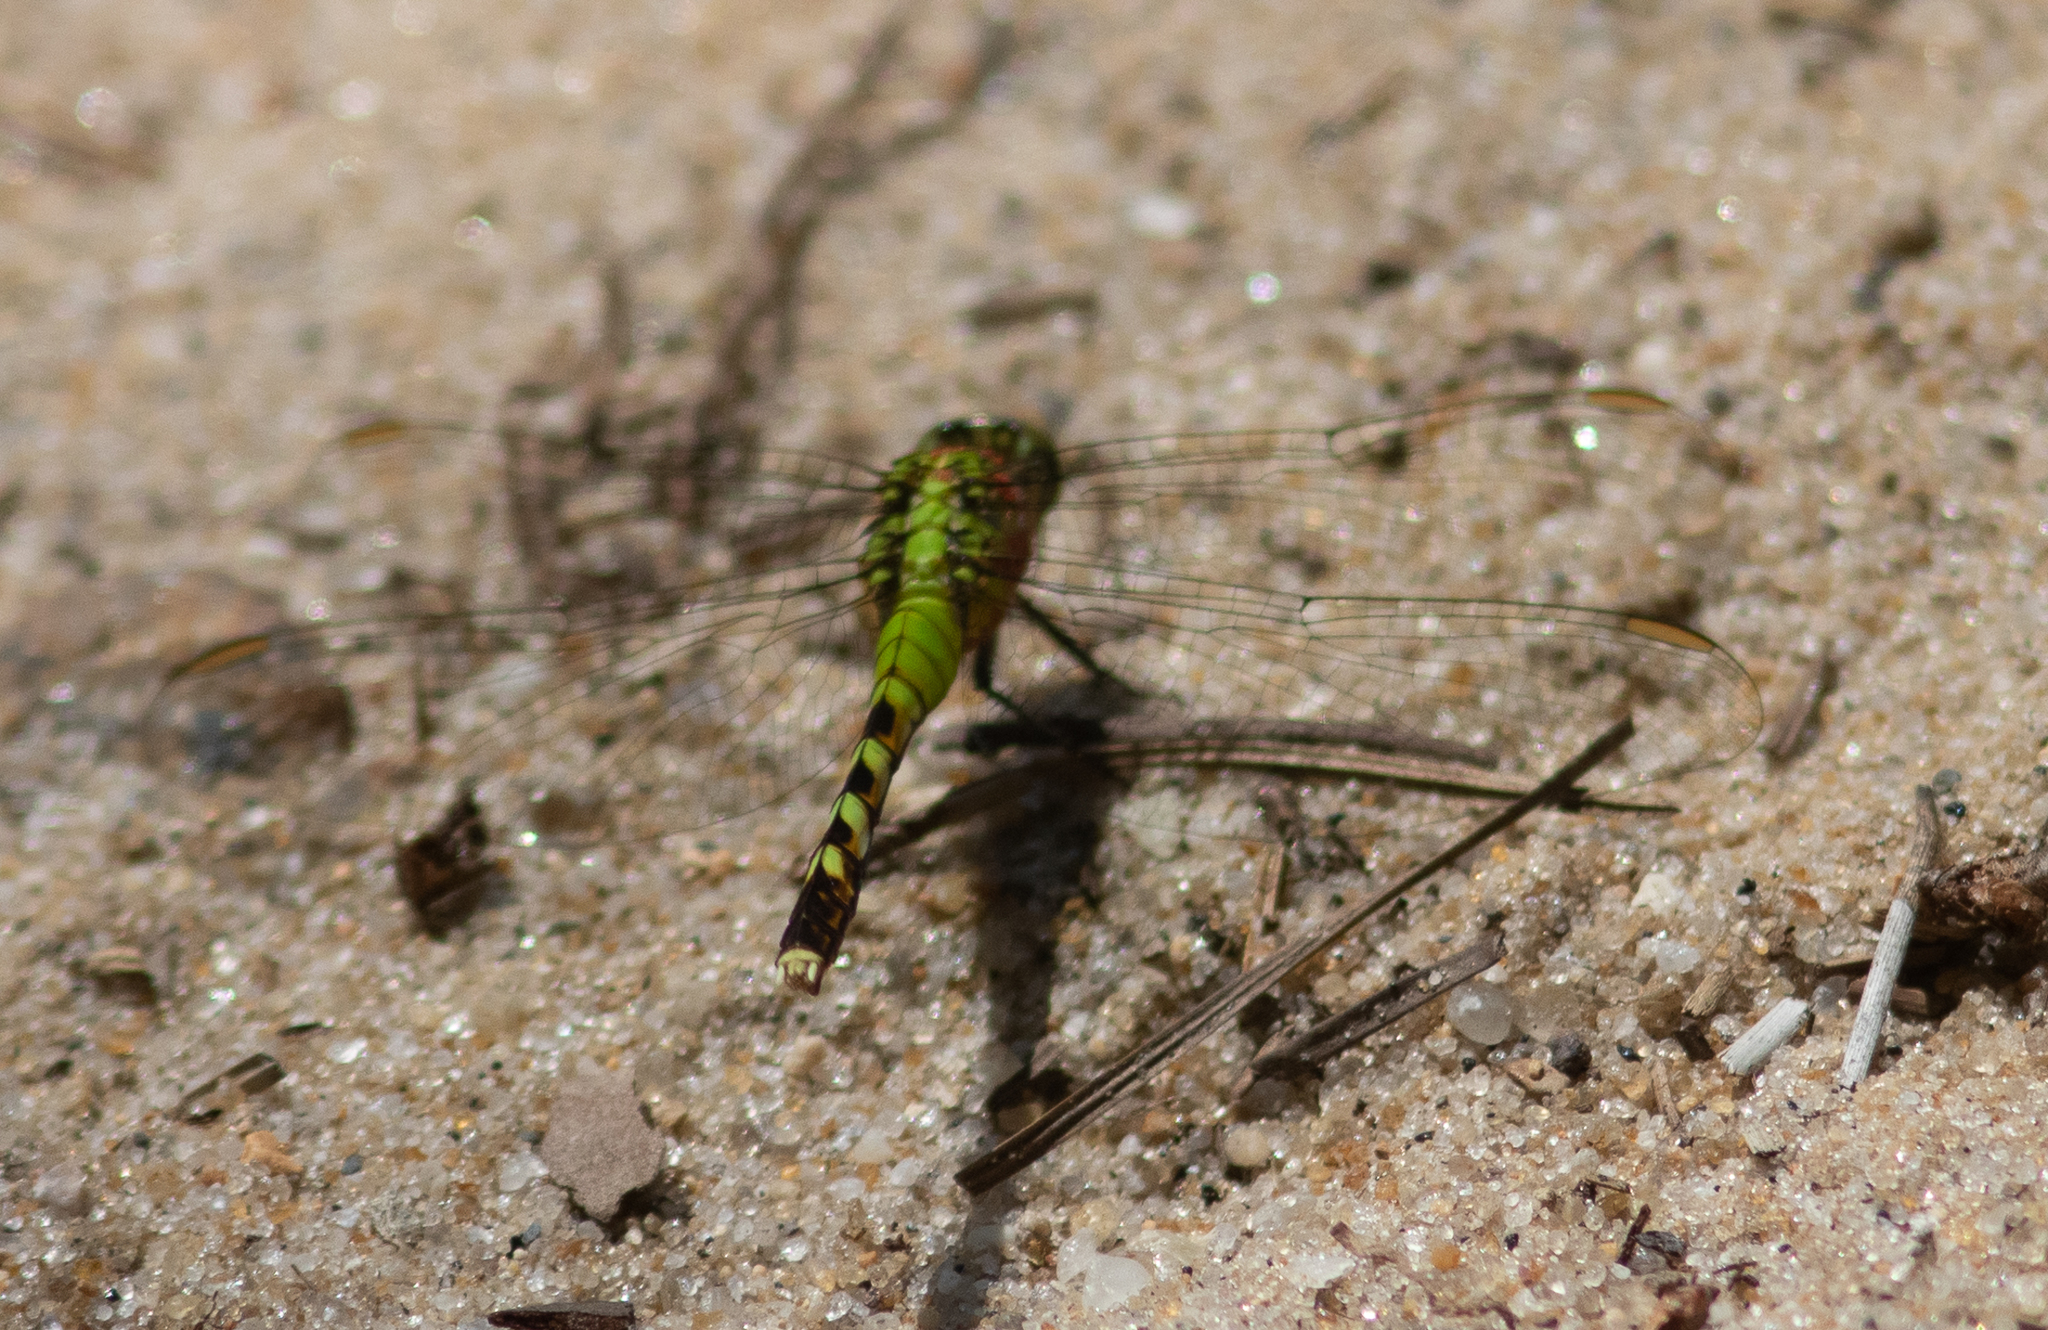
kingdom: Animalia
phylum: Arthropoda
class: Insecta
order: Odonata
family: Libellulidae
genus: Erythemis
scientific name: Erythemis simplicicollis
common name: Eastern pondhawk
